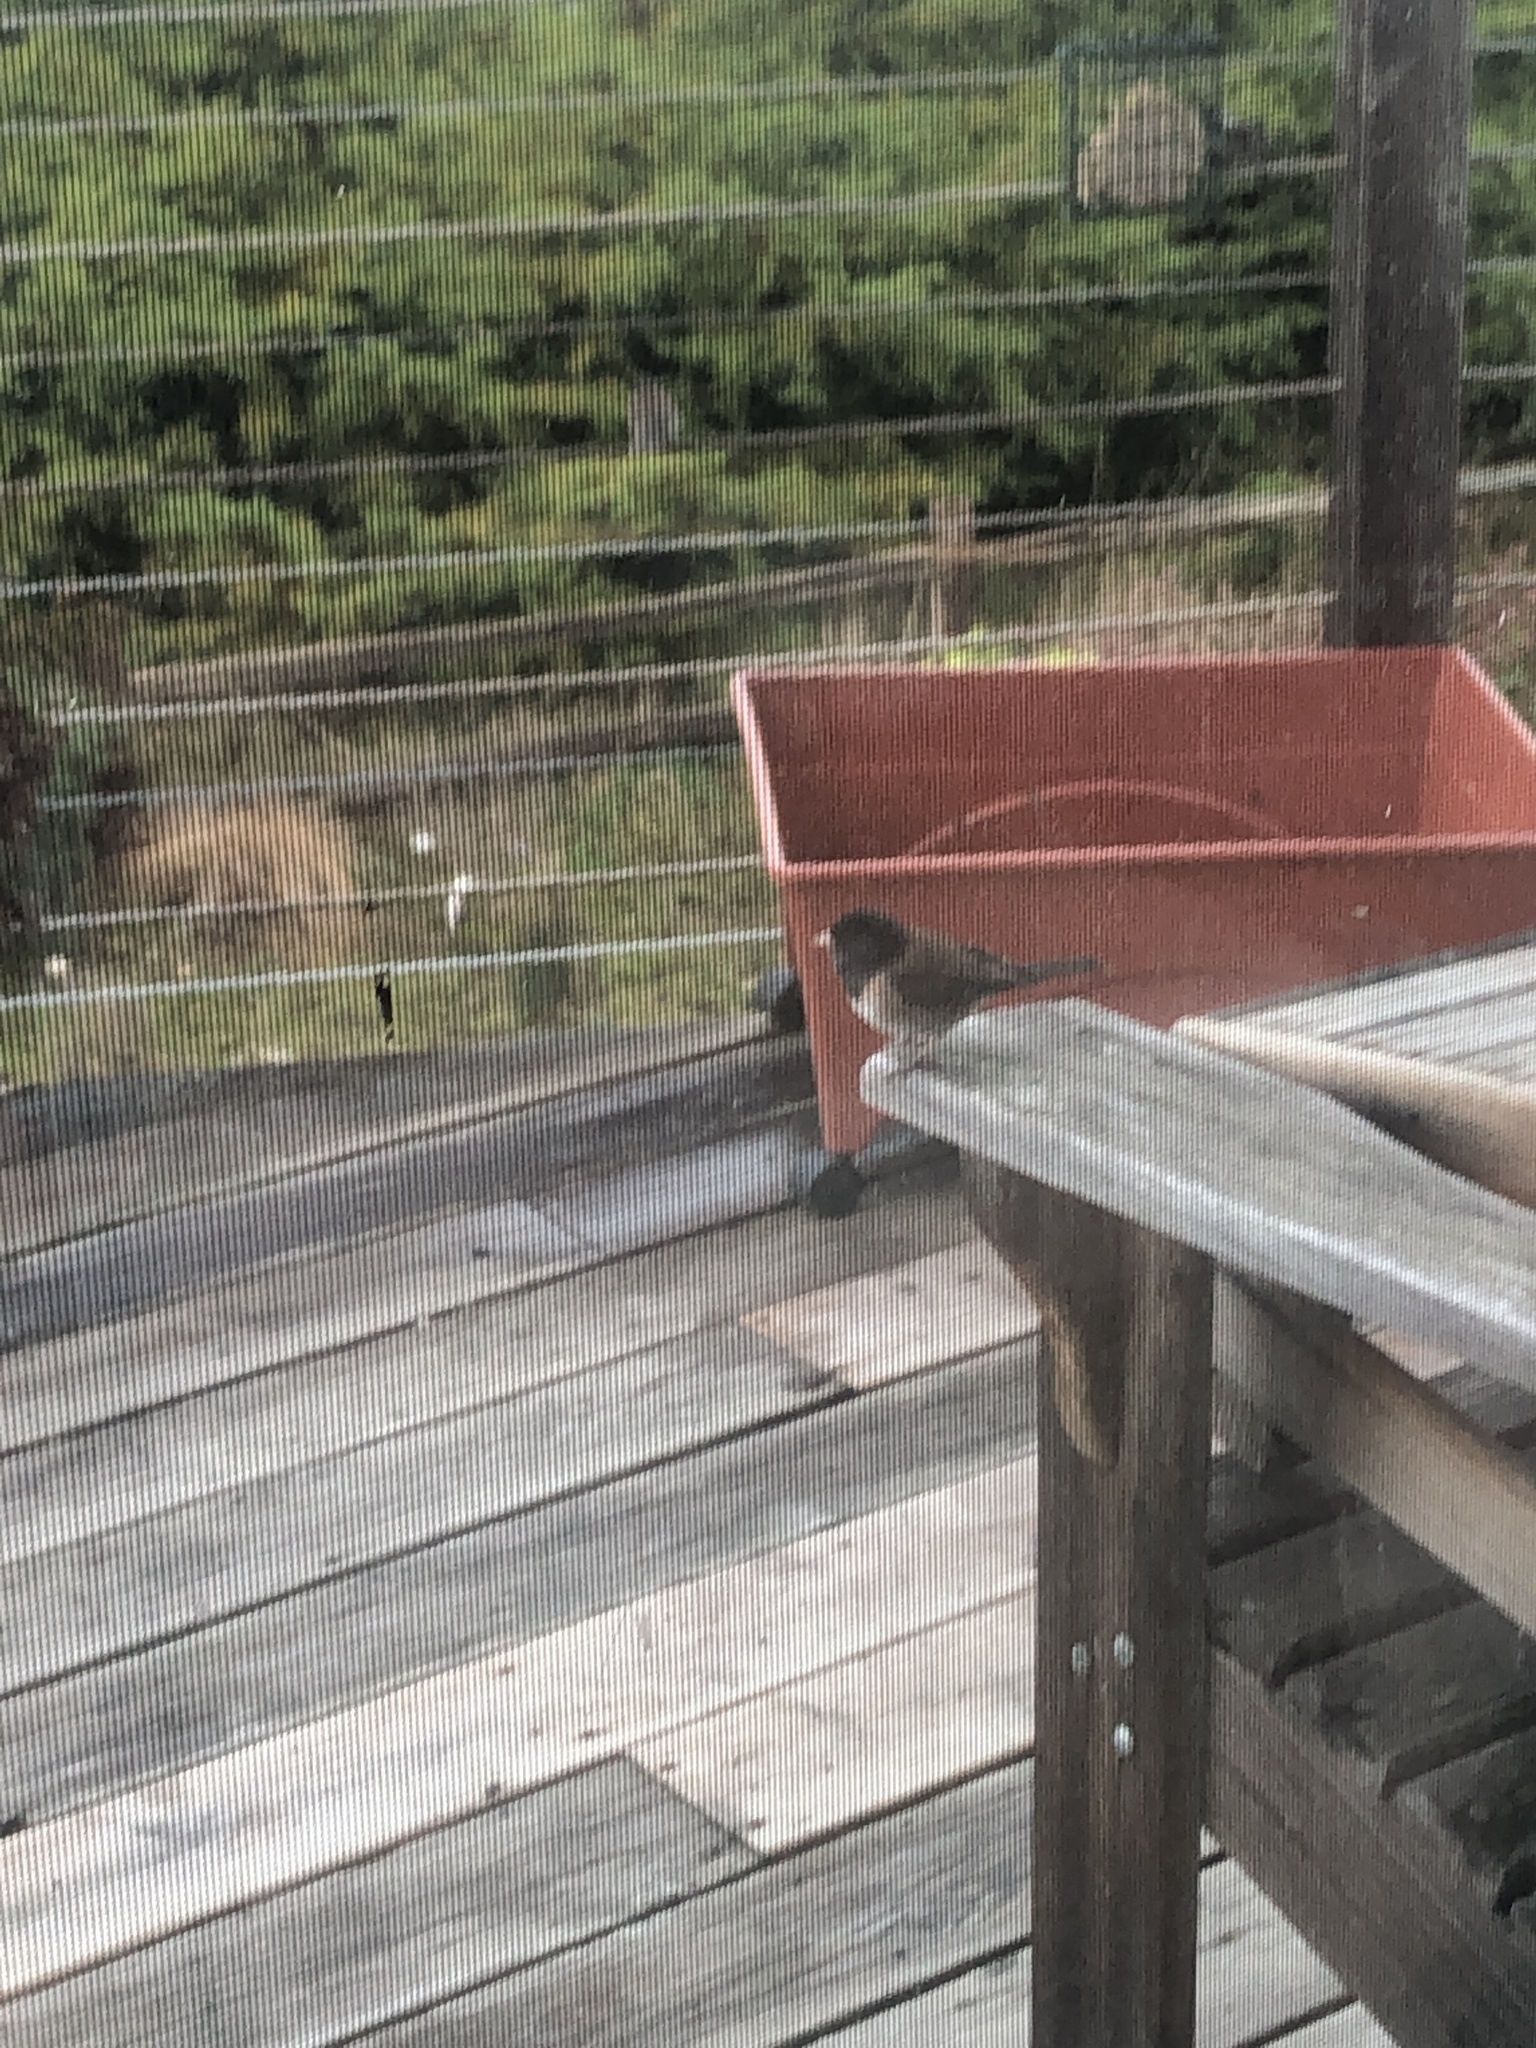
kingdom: Animalia
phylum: Chordata
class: Aves
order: Passeriformes
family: Passerellidae
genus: Junco
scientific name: Junco hyemalis
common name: Dark-eyed junco
